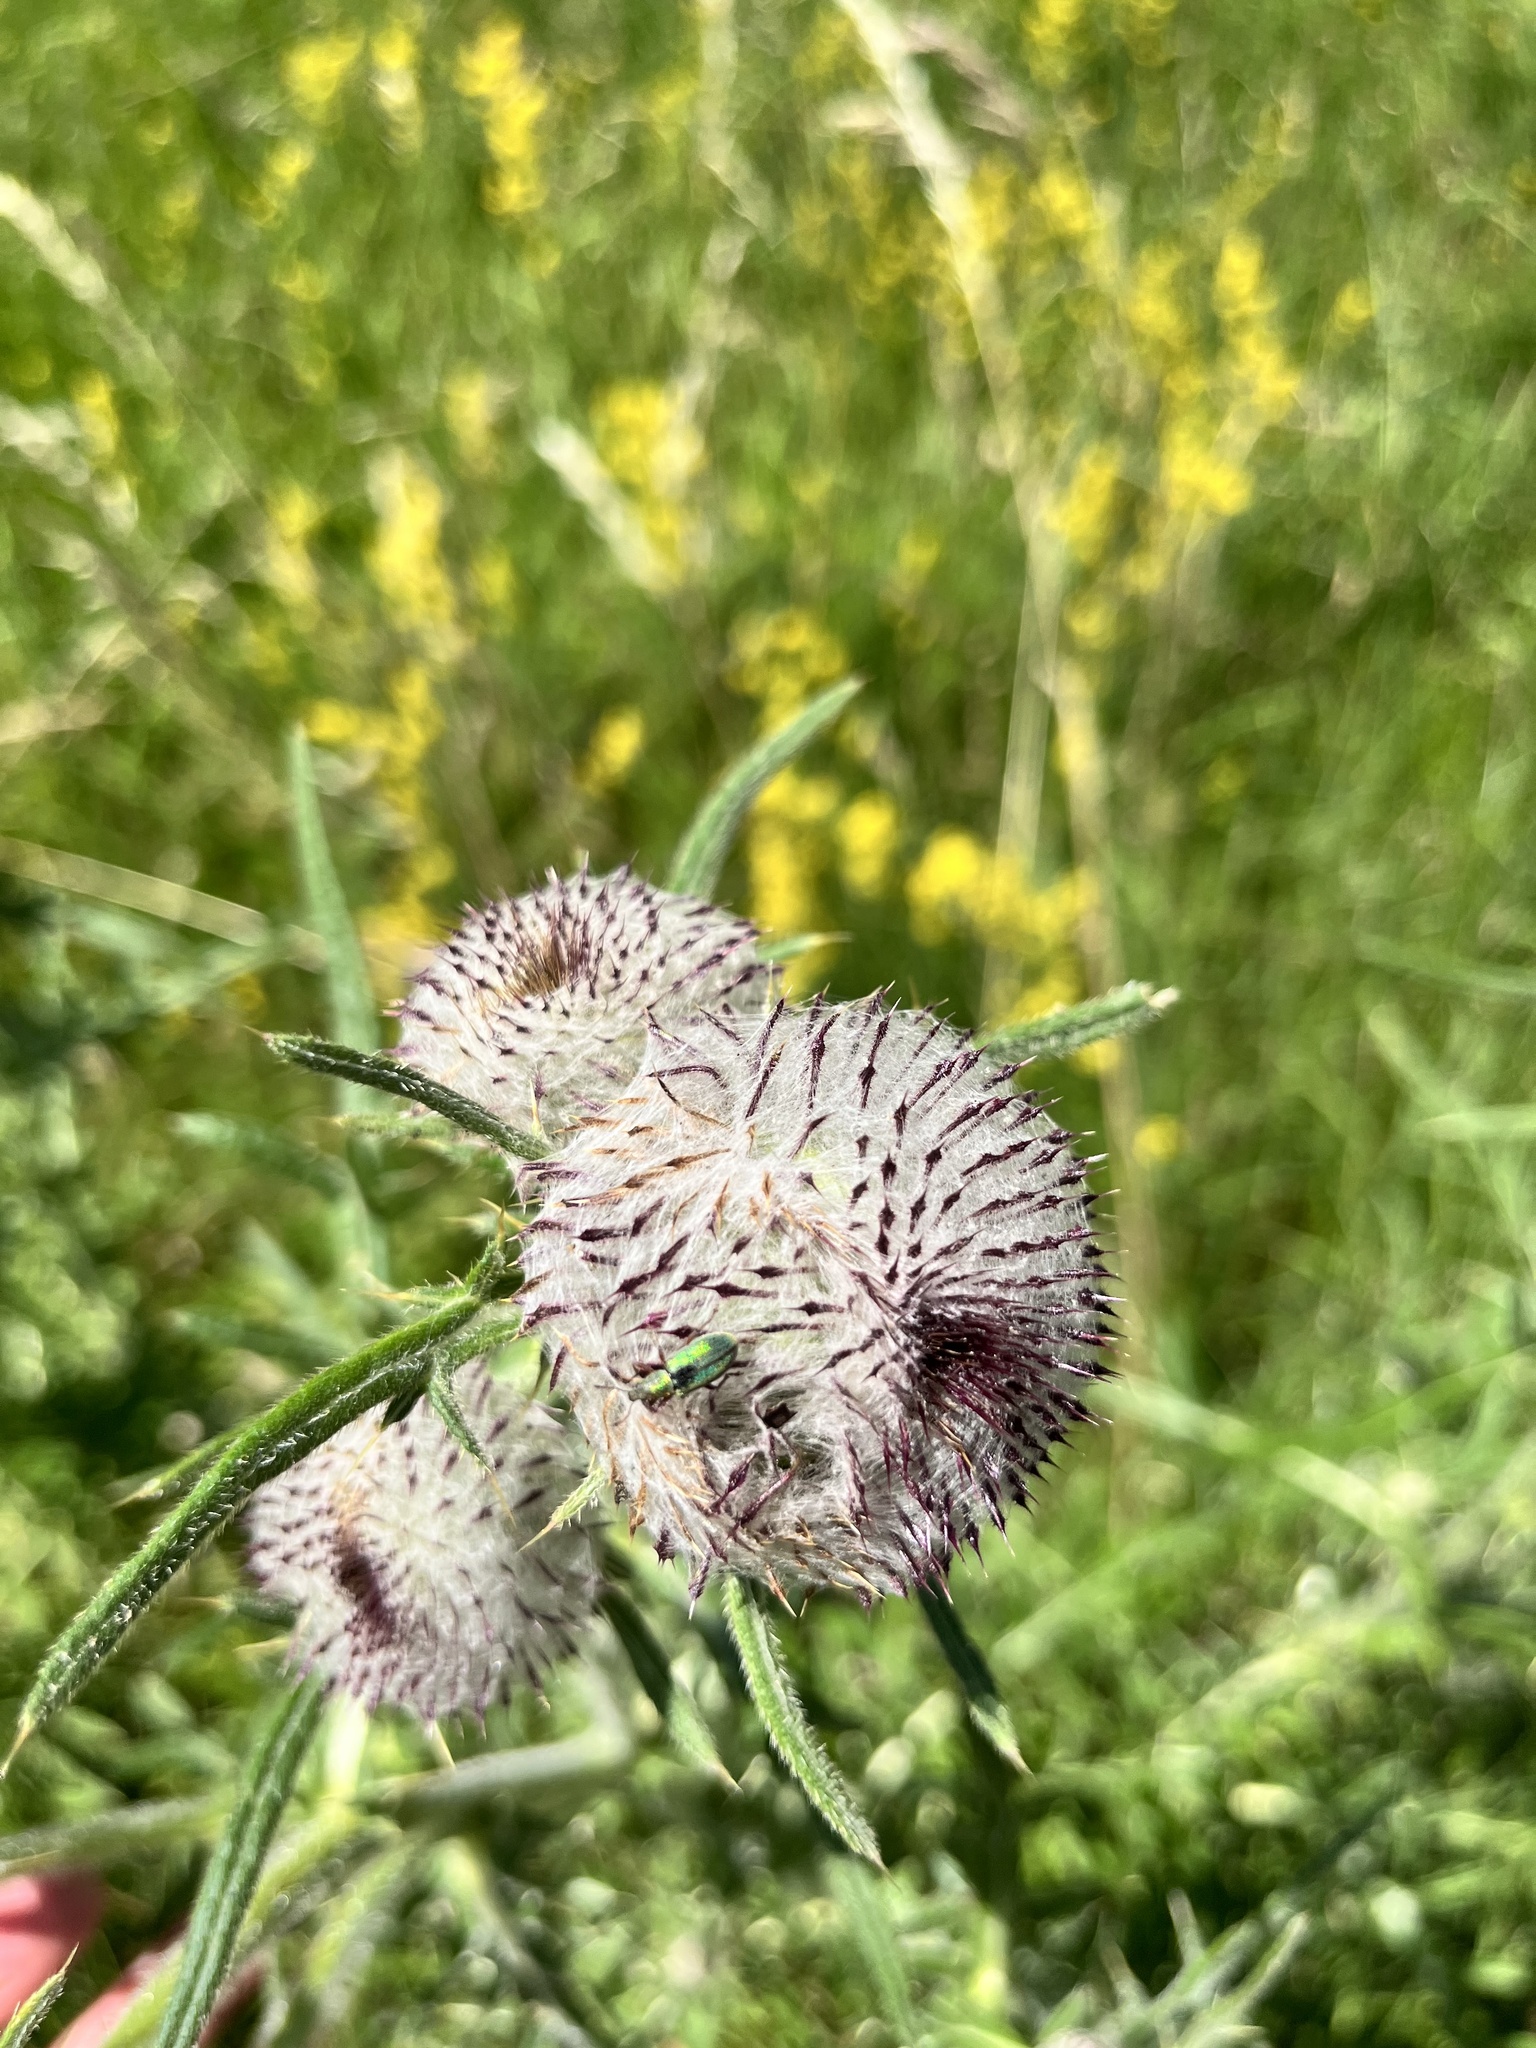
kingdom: Plantae
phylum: Tracheophyta
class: Magnoliopsida
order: Asterales
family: Asteraceae
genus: Lophiolepis
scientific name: Lophiolepis eriophora
